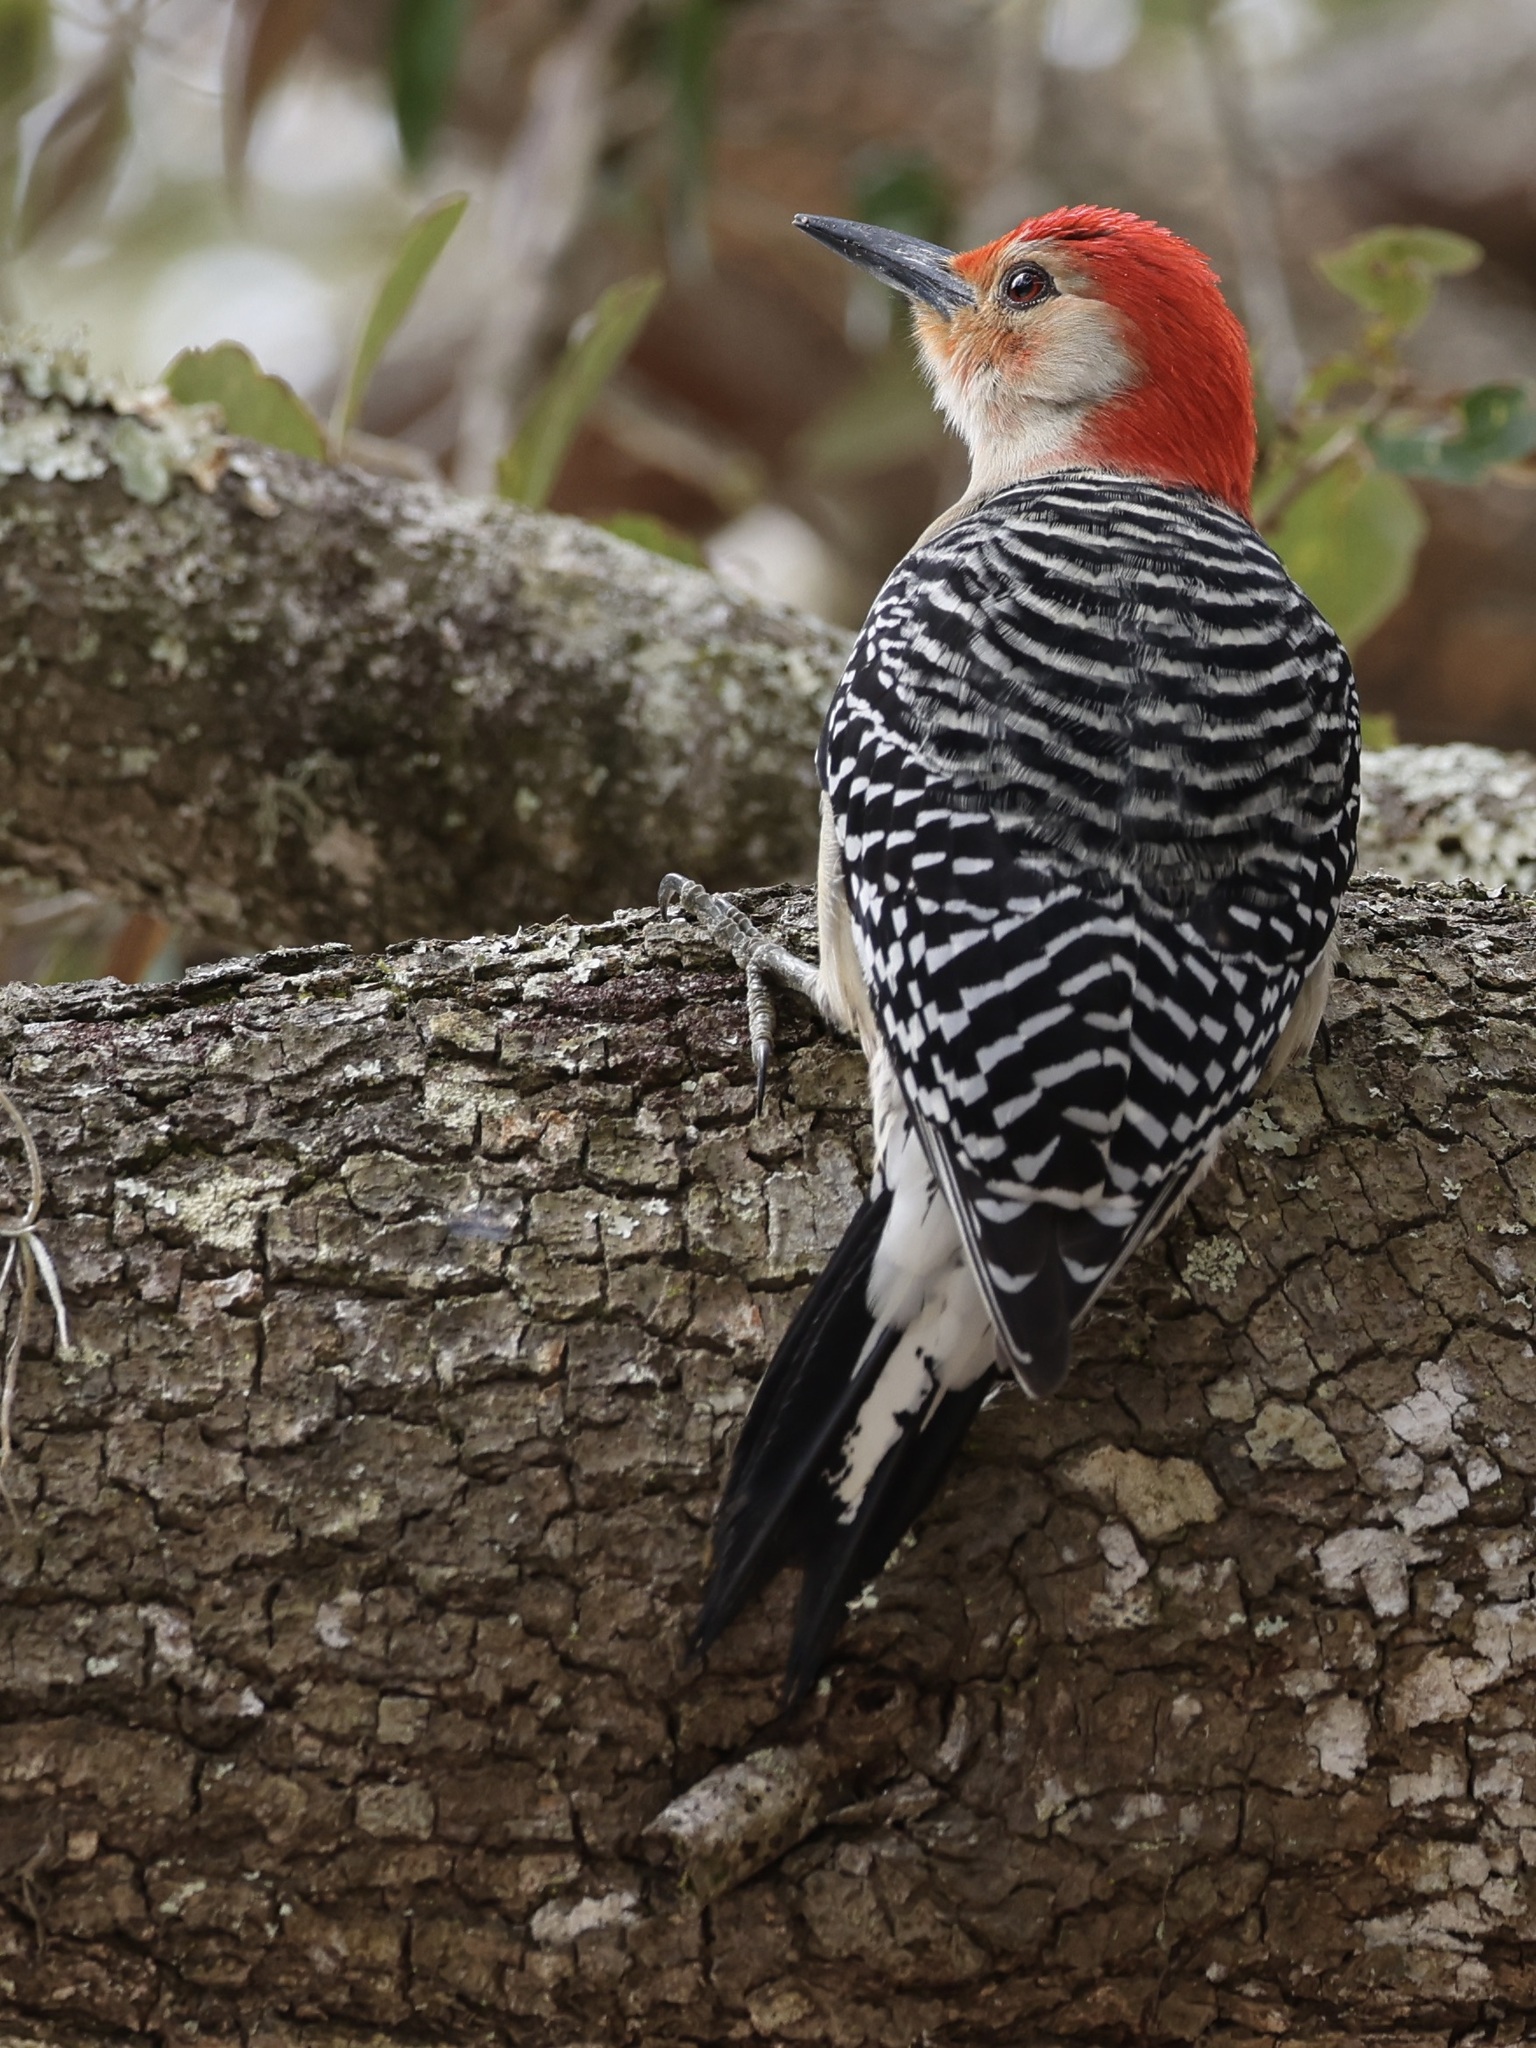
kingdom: Animalia
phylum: Chordata
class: Aves
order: Piciformes
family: Picidae
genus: Melanerpes
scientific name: Melanerpes carolinus
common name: Red-bellied woodpecker
